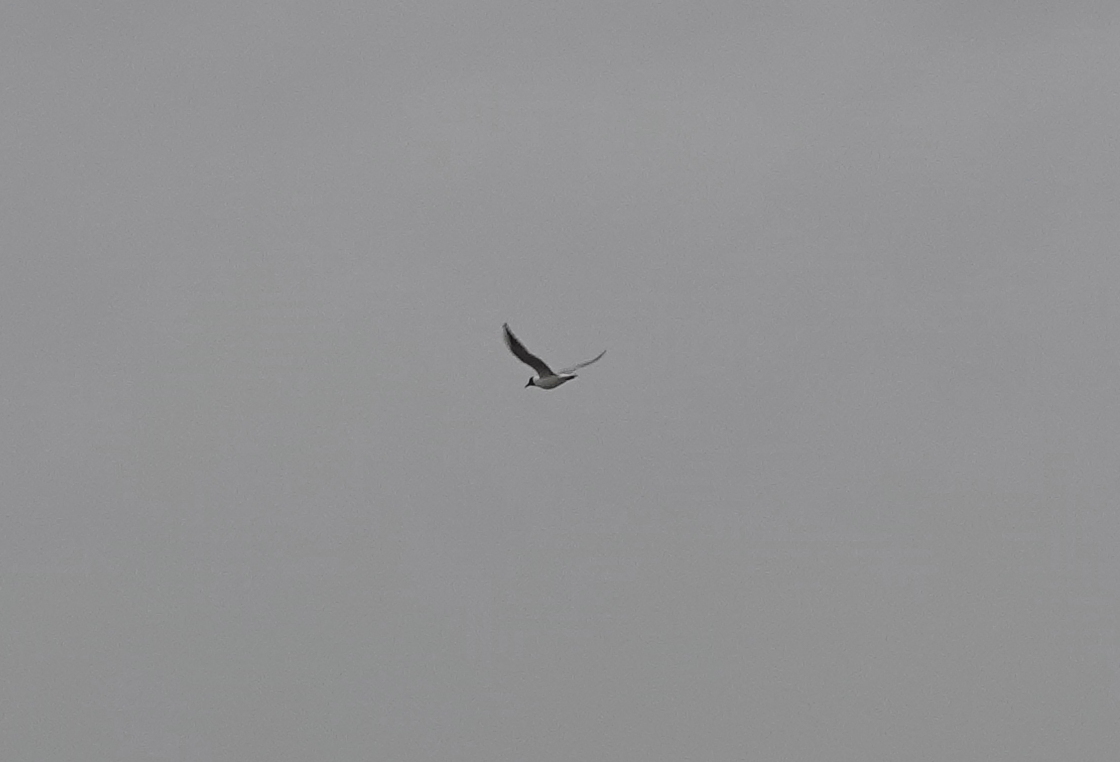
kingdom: Animalia
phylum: Chordata
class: Aves
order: Charadriiformes
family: Laridae
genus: Chroicocephalus
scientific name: Chroicocephalus ridibundus
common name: Black-headed gull
